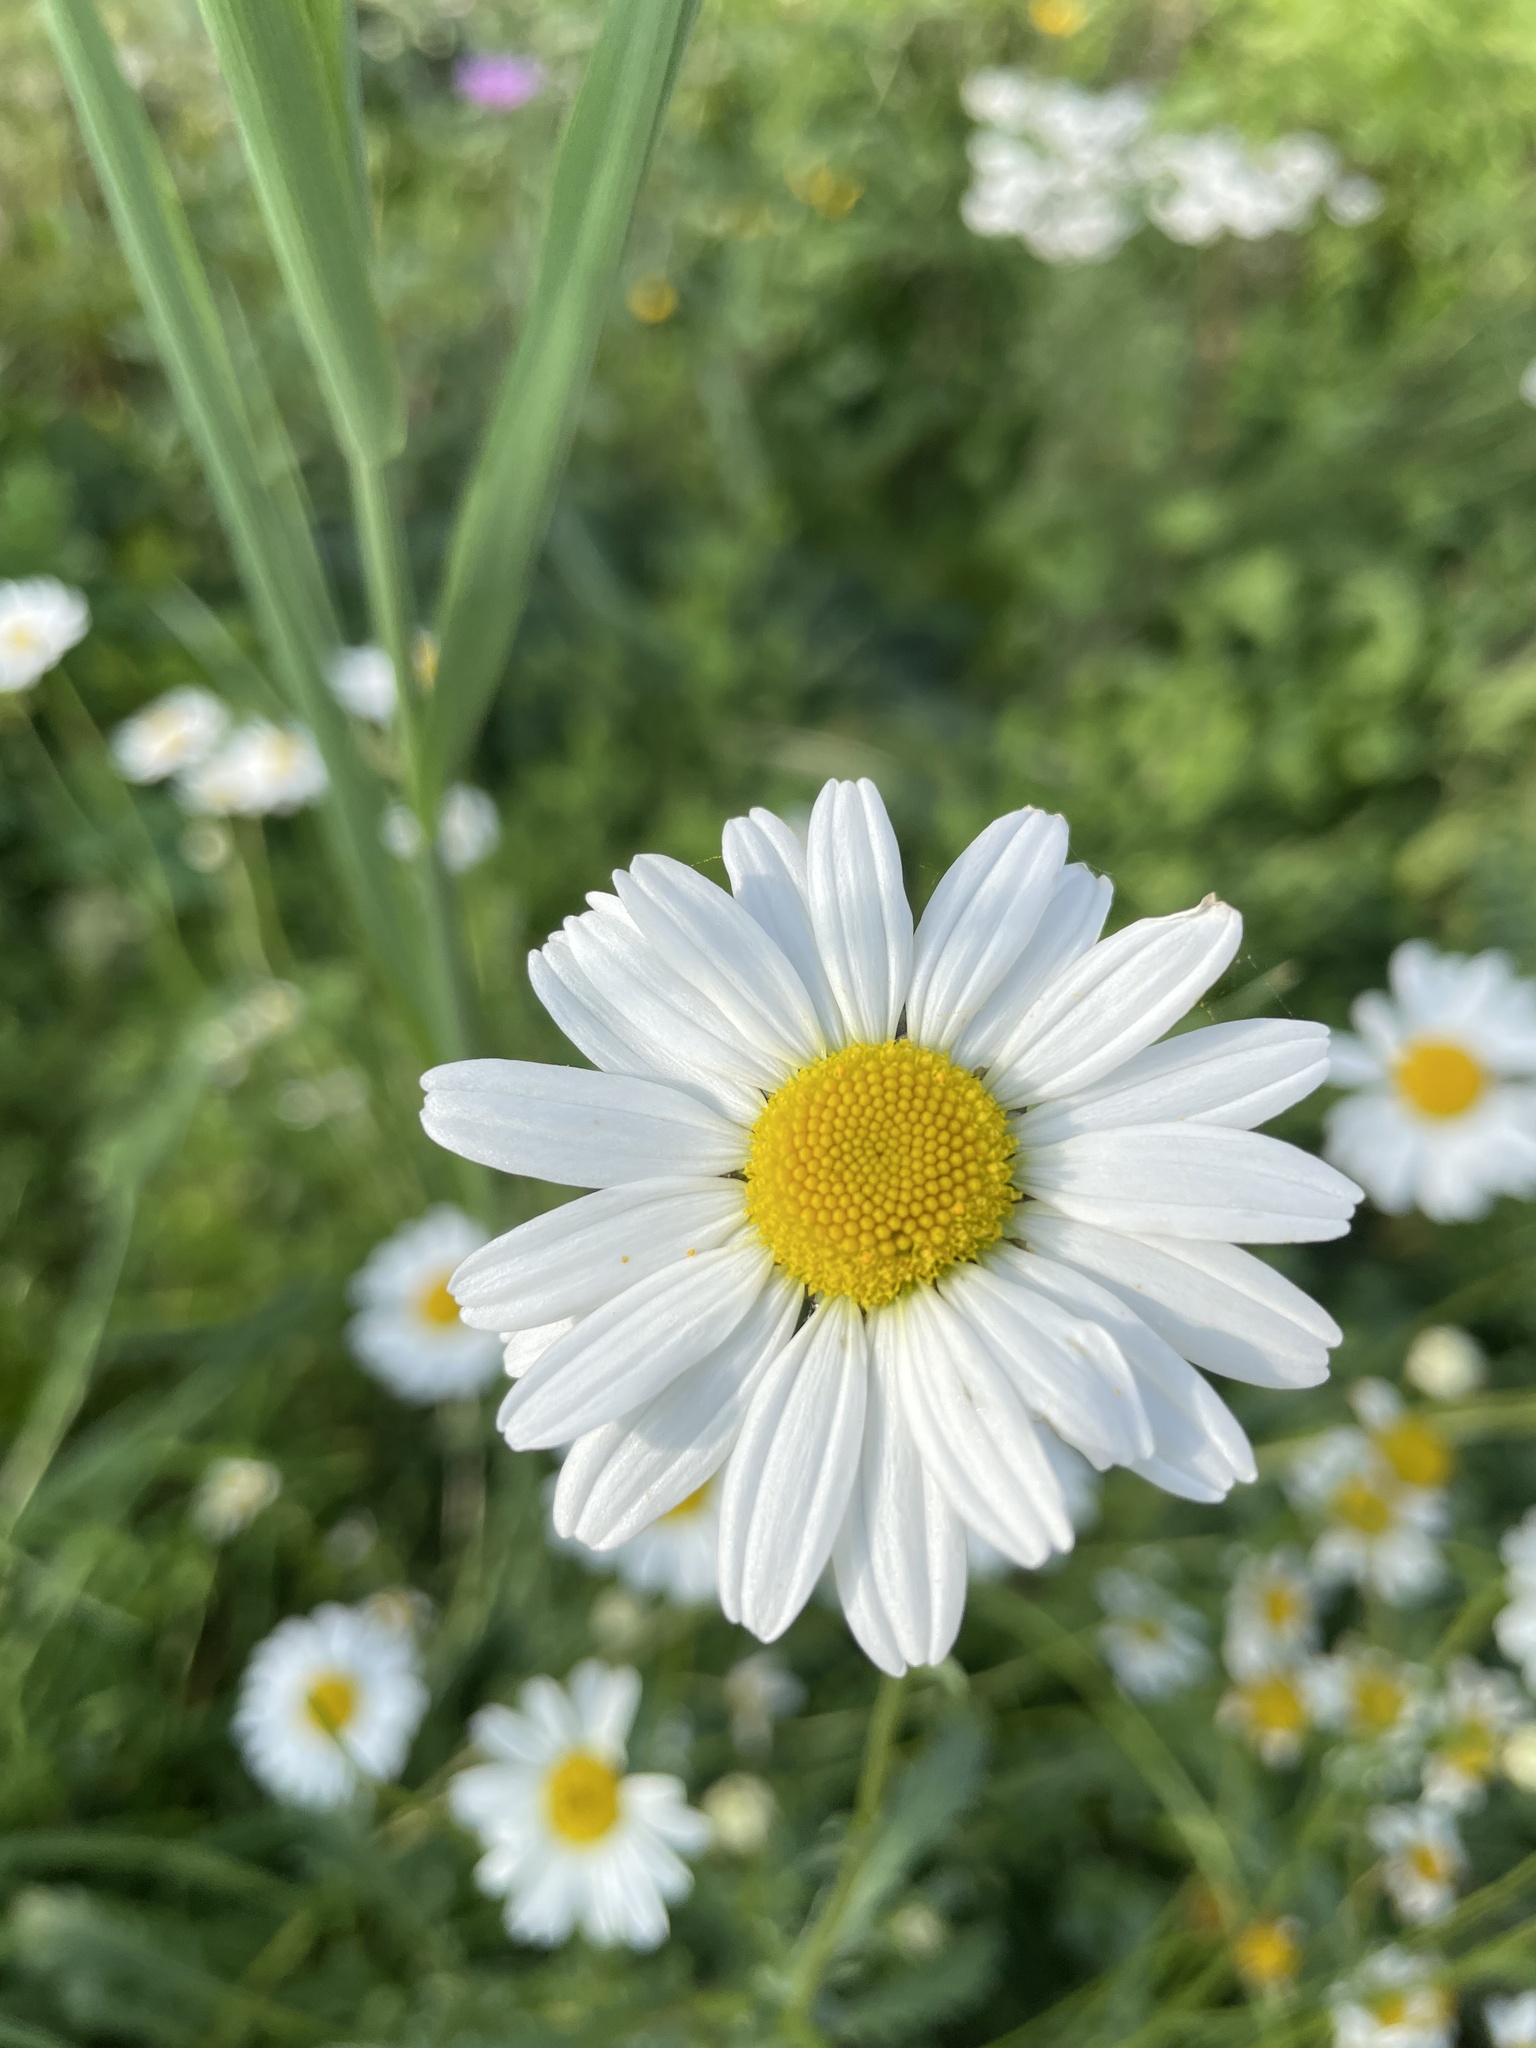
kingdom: Plantae
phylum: Tracheophyta
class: Magnoliopsida
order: Asterales
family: Asteraceae
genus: Leucanthemum
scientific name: Leucanthemum vulgare
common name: Oxeye daisy
